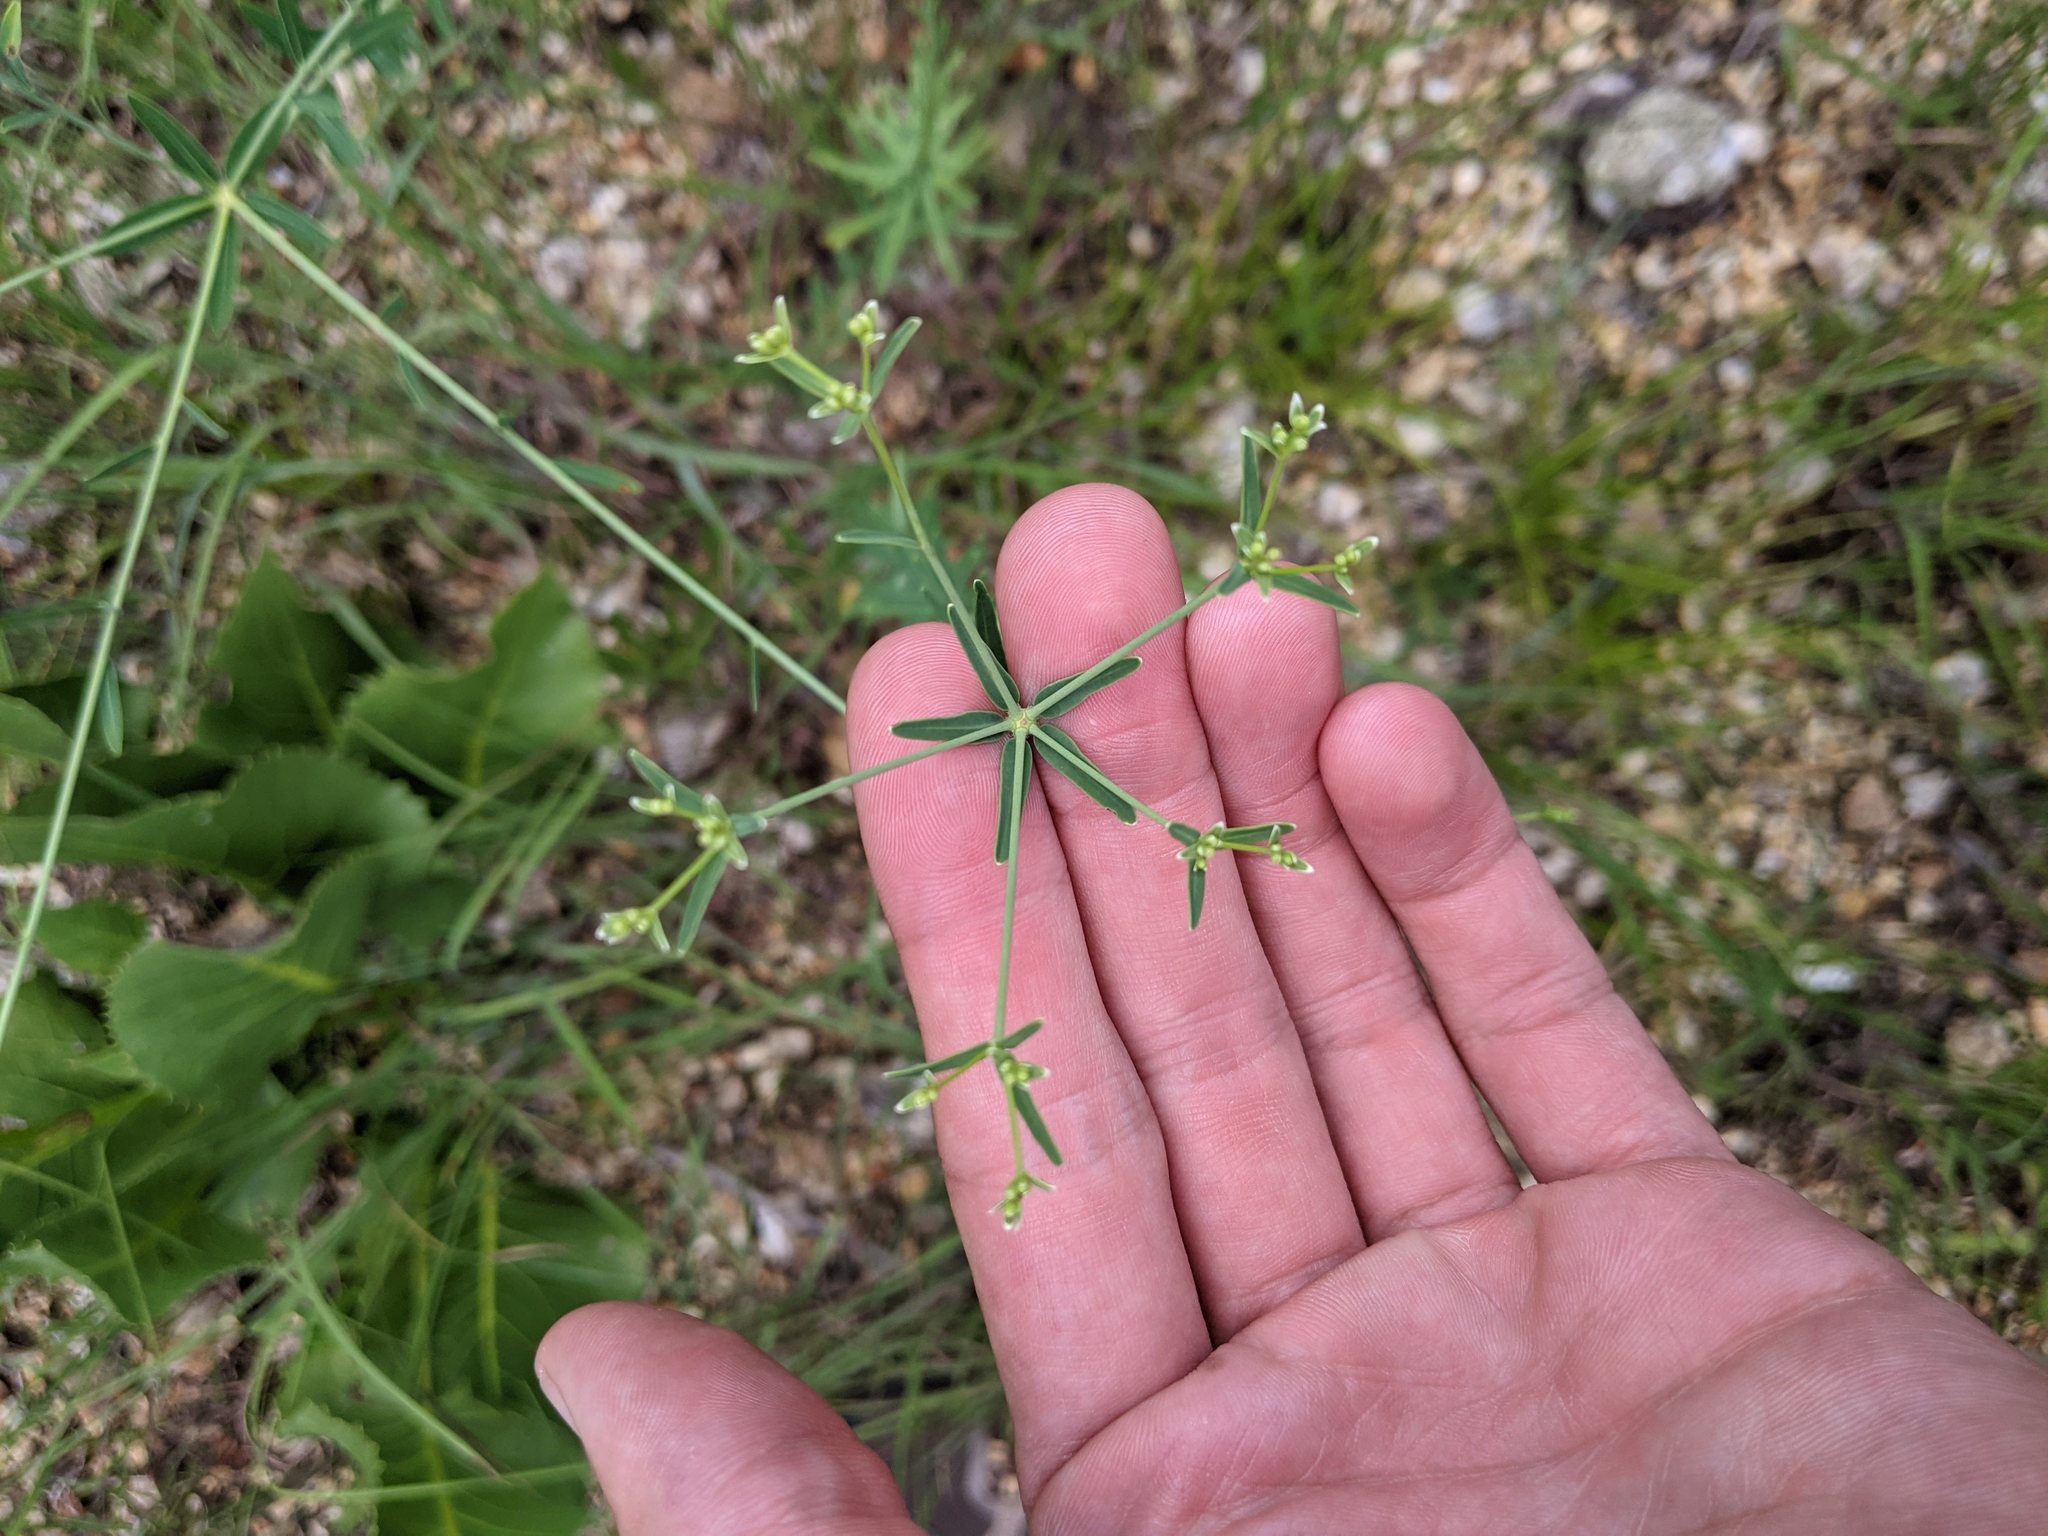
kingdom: Plantae
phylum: Tracheophyta
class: Magnoliopsida
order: Malpighiales
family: Euphorbiaceae
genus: Euphorbia
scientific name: Euphorbia corollata
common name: Flowering spurge
